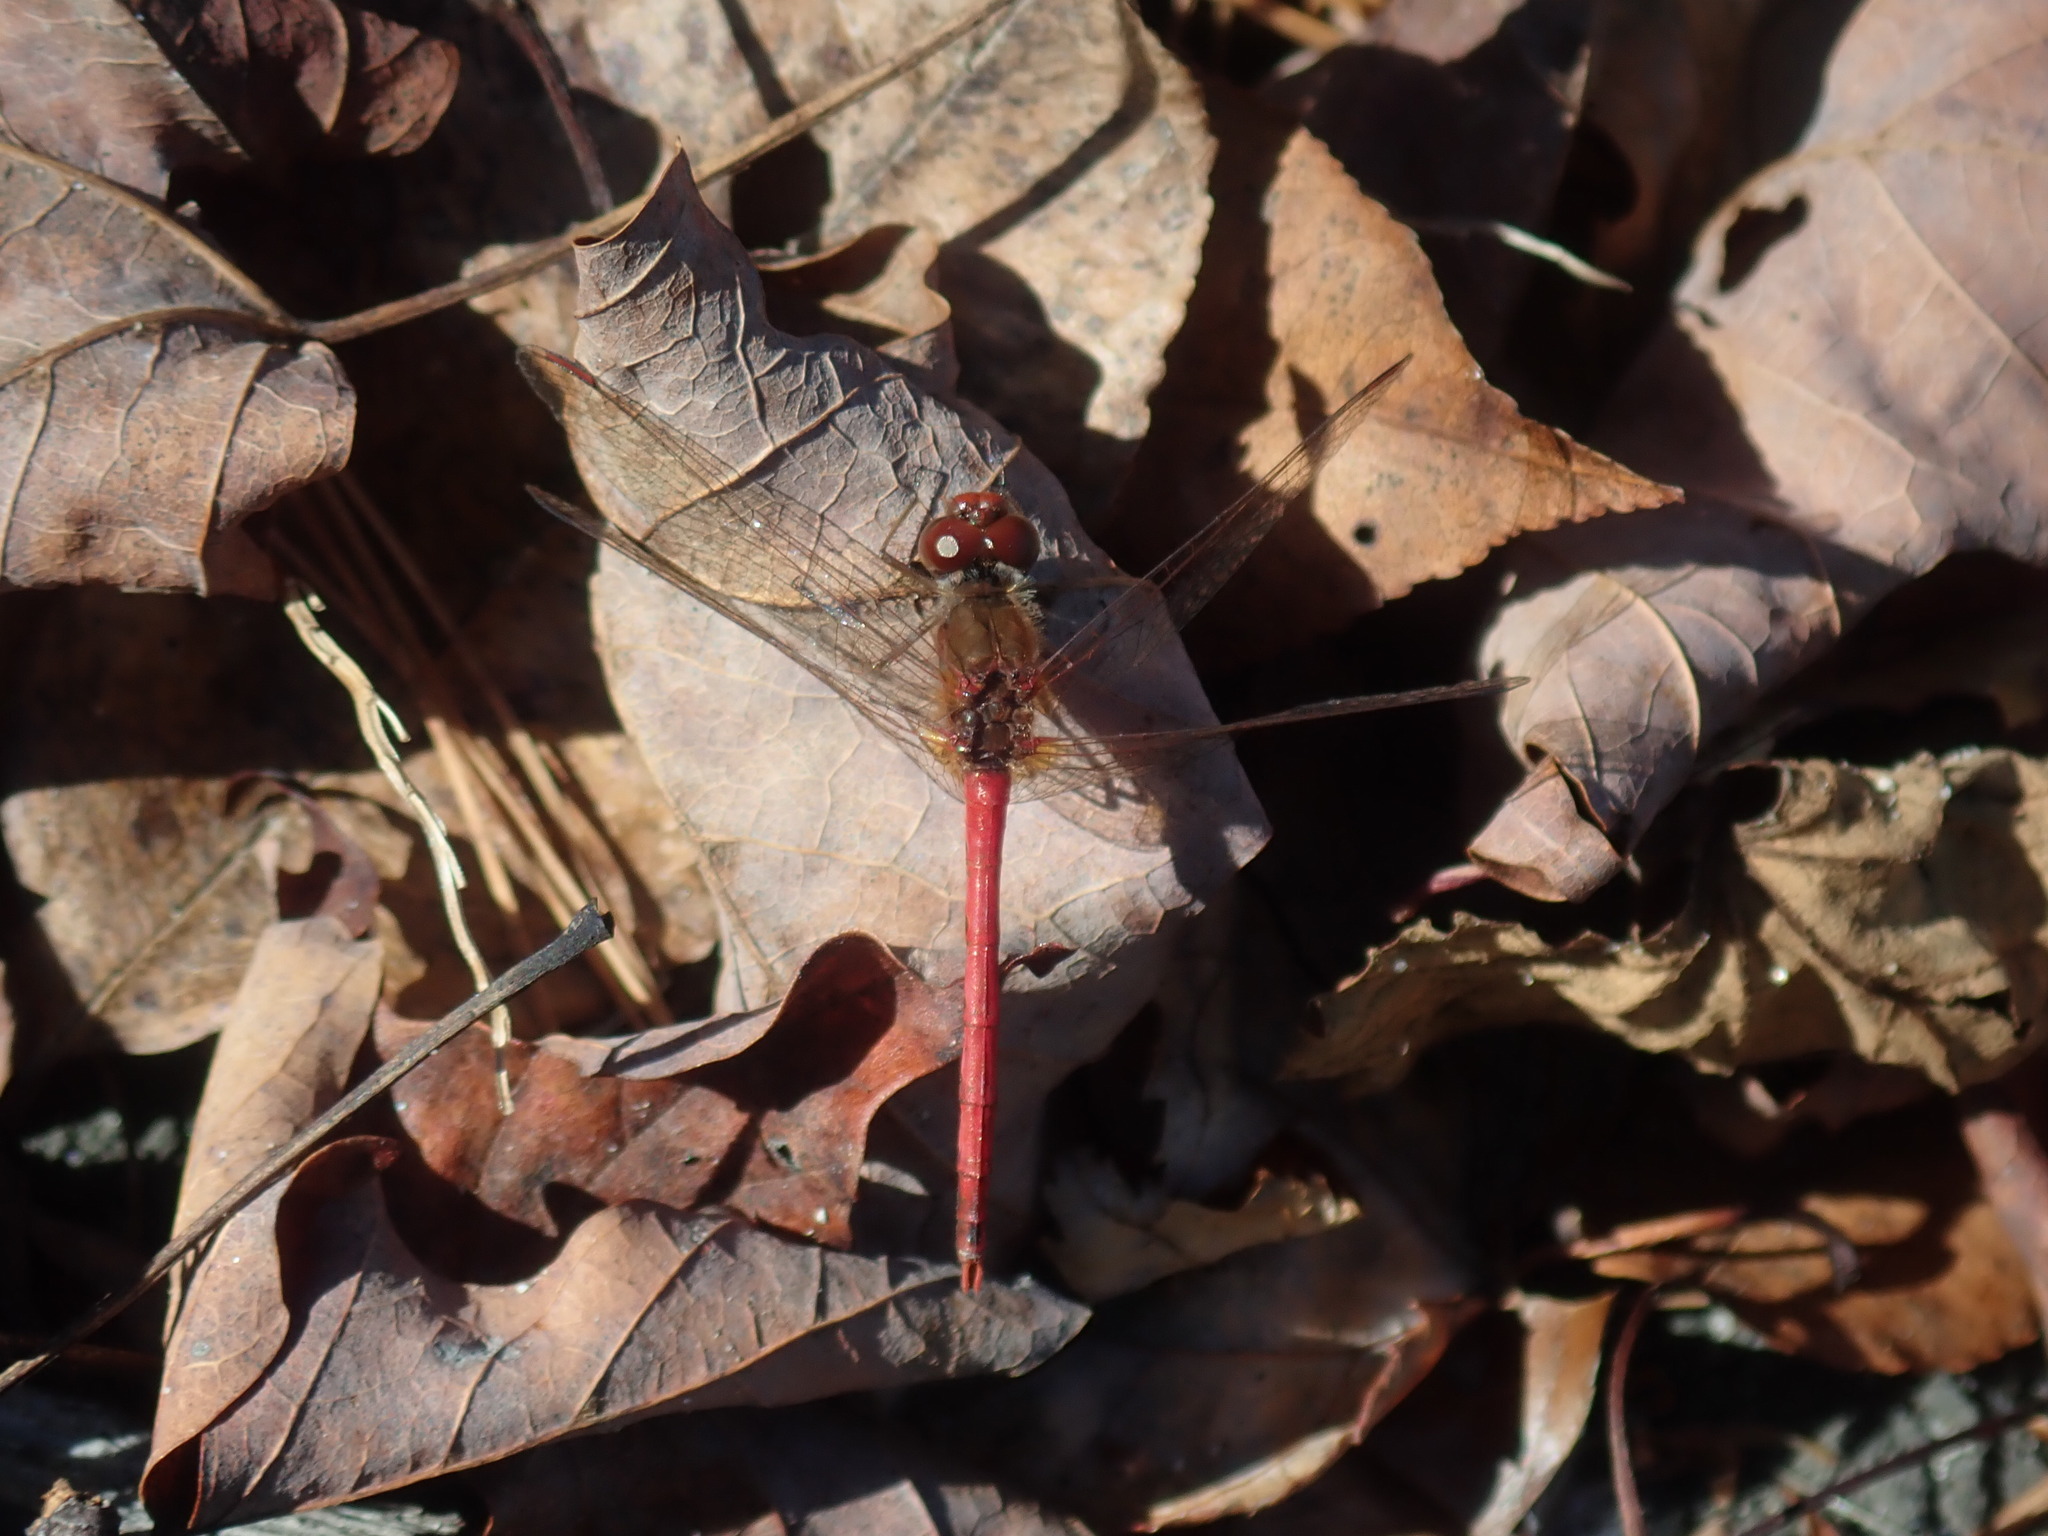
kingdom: Animalia
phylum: Arthropoda
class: Insecta
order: Odonata
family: Libellulidae
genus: Sympetrum
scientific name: Sympetrum vicinum
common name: Autumn meadowhawk
